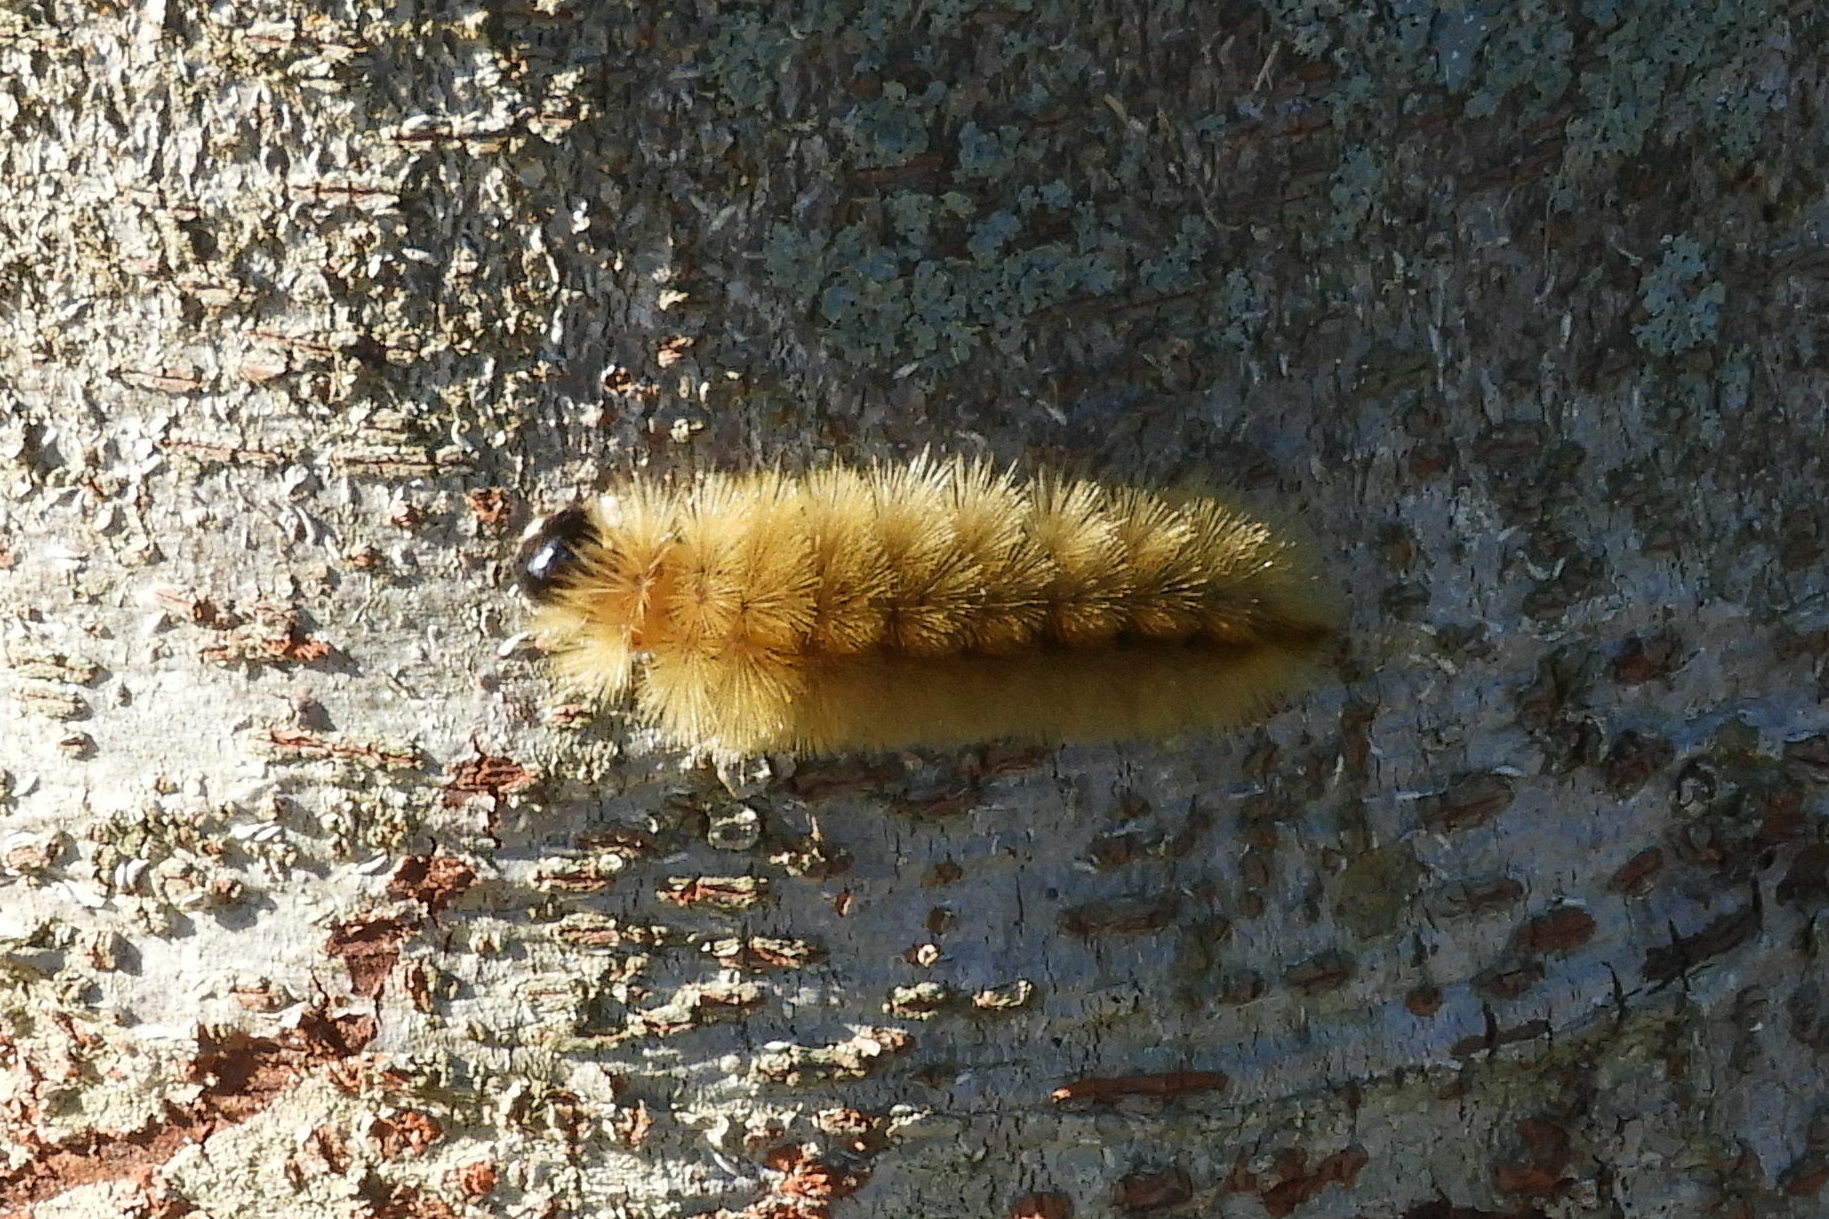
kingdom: Animalia
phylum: Arthropoda
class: Insecta
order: Lepidoptera
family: Erebidae
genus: Halysidota
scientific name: Halysidota tessellaris
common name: Banded tussock moth
